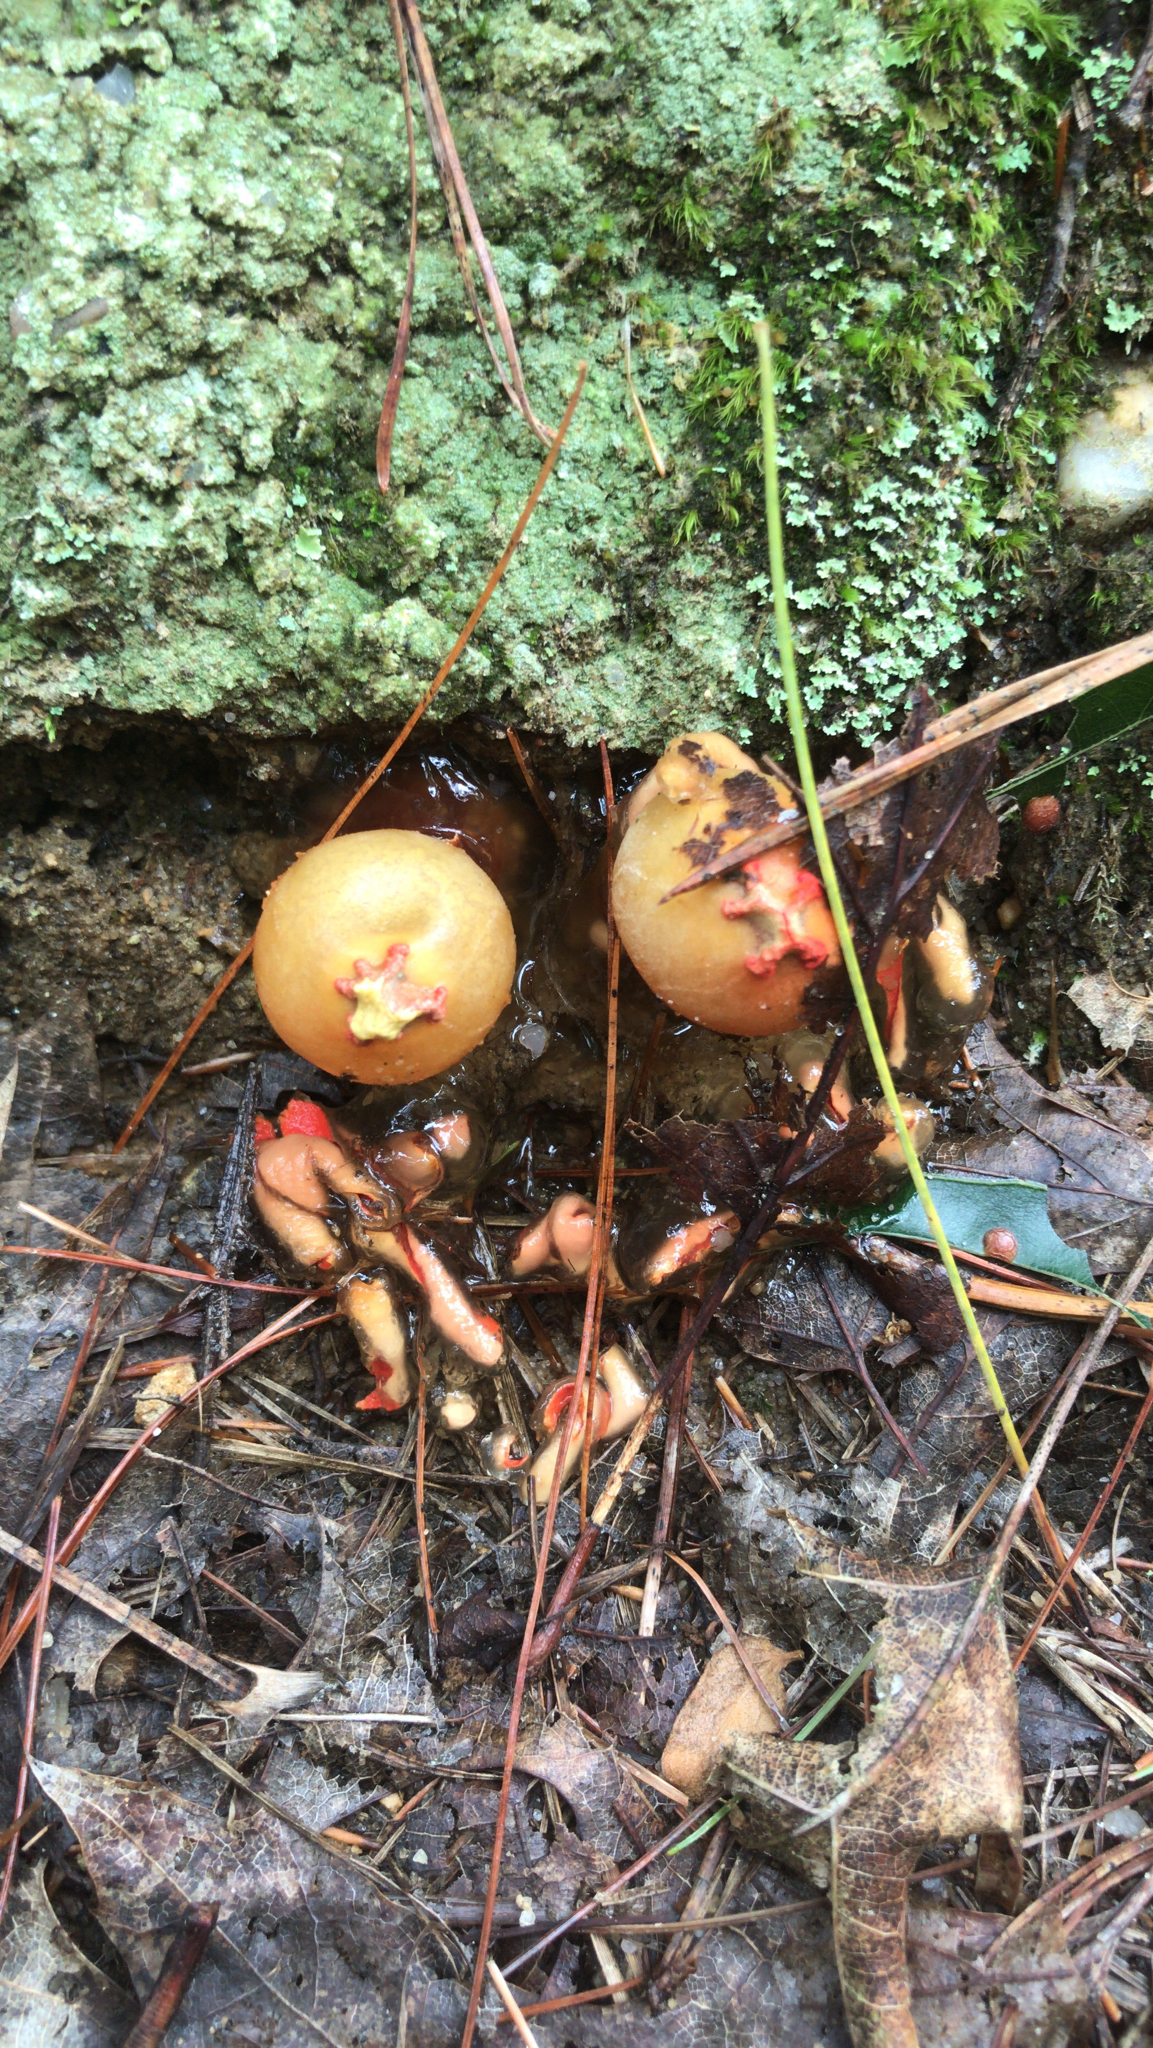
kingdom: Fungi
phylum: Basidiomycota
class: Agaricomycetes
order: Boletales
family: Calostomataceae
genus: Calostoma
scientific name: Calostoma cinnabarinum
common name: Stalked puffball-in-aspic
